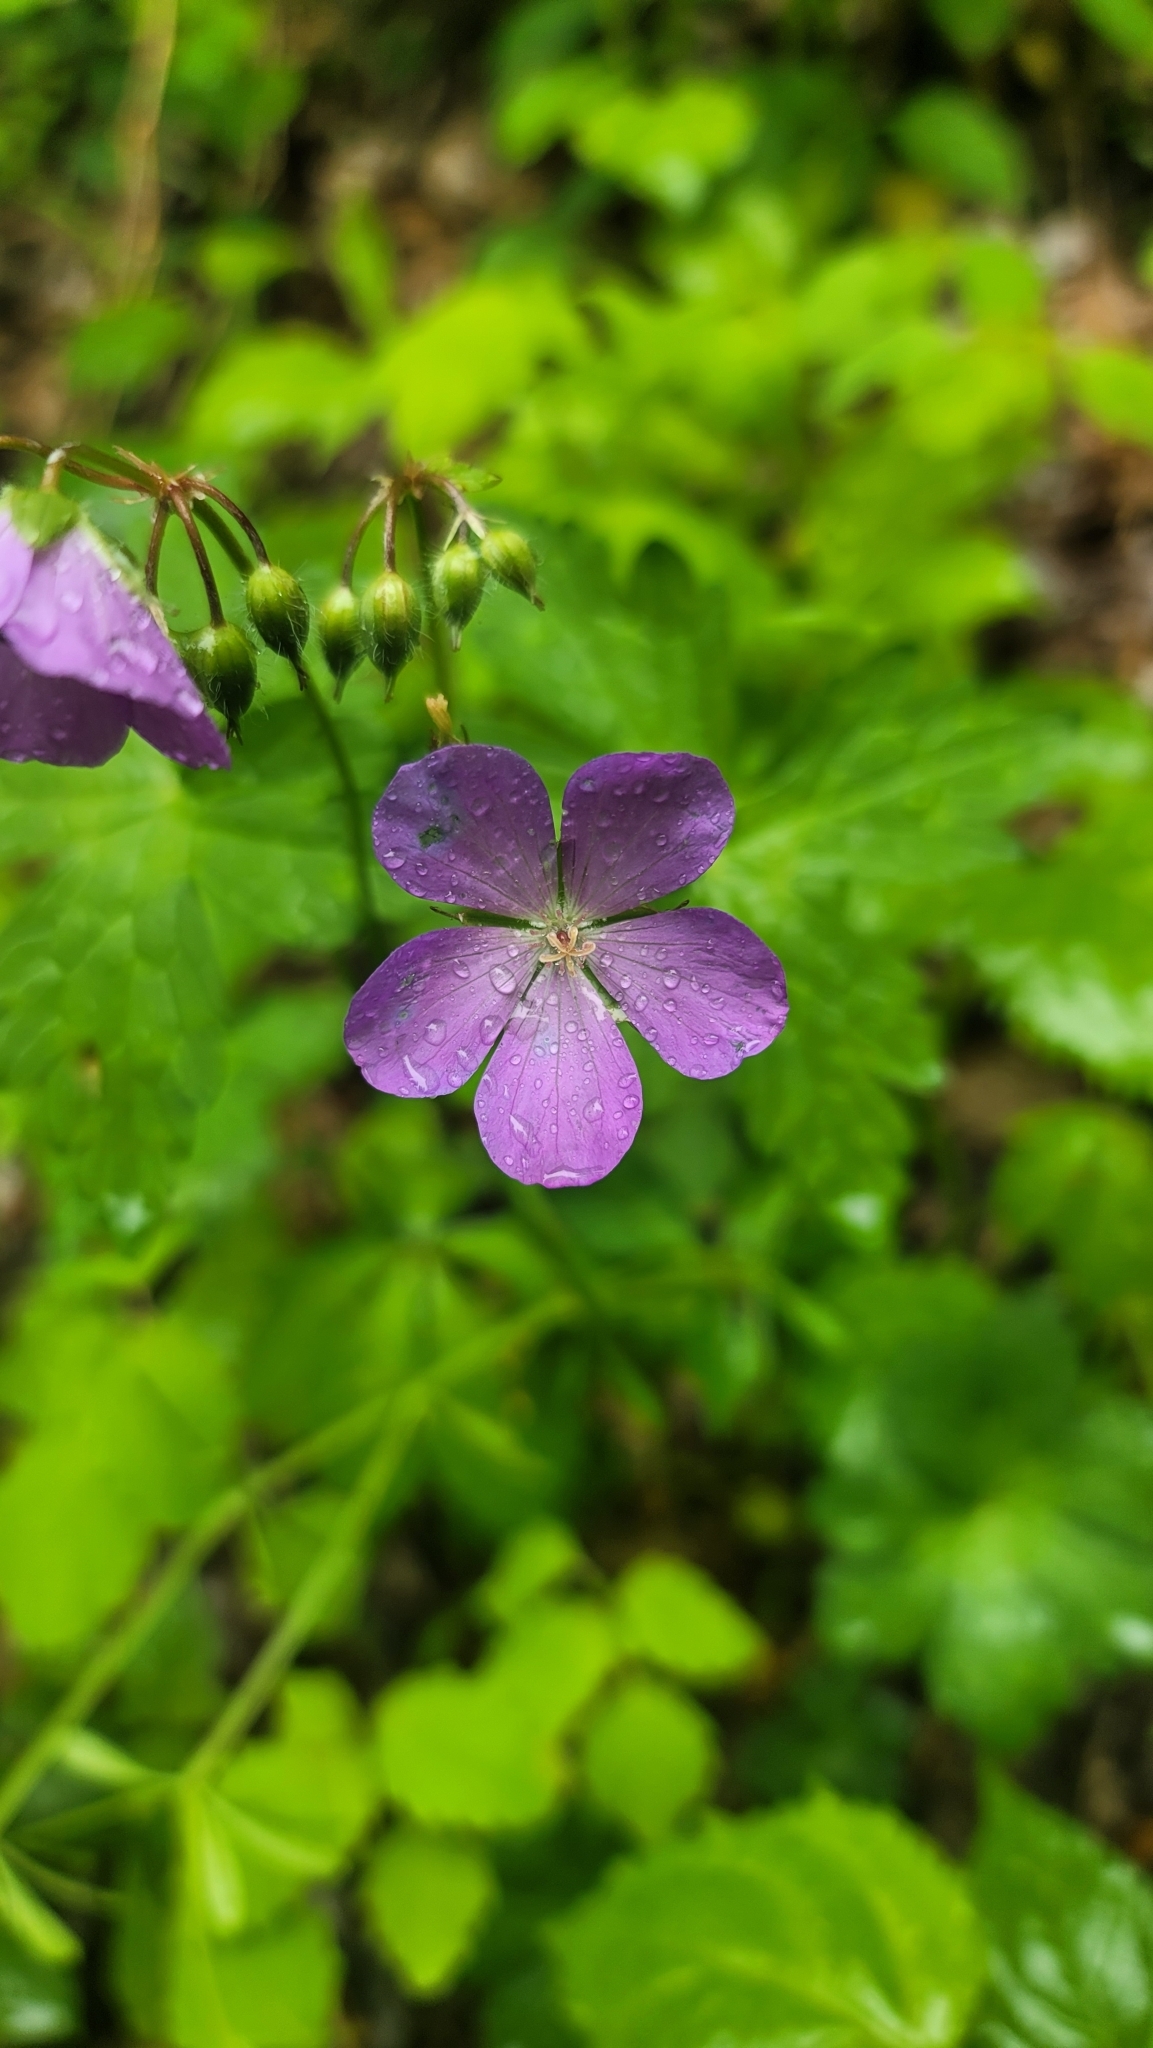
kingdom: Plantae
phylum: Tracheophyta
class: Magnoliopsida
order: Geraniales
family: Geraniaceae
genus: Geranium
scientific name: Geranium maculatum
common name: Spotted geranium
